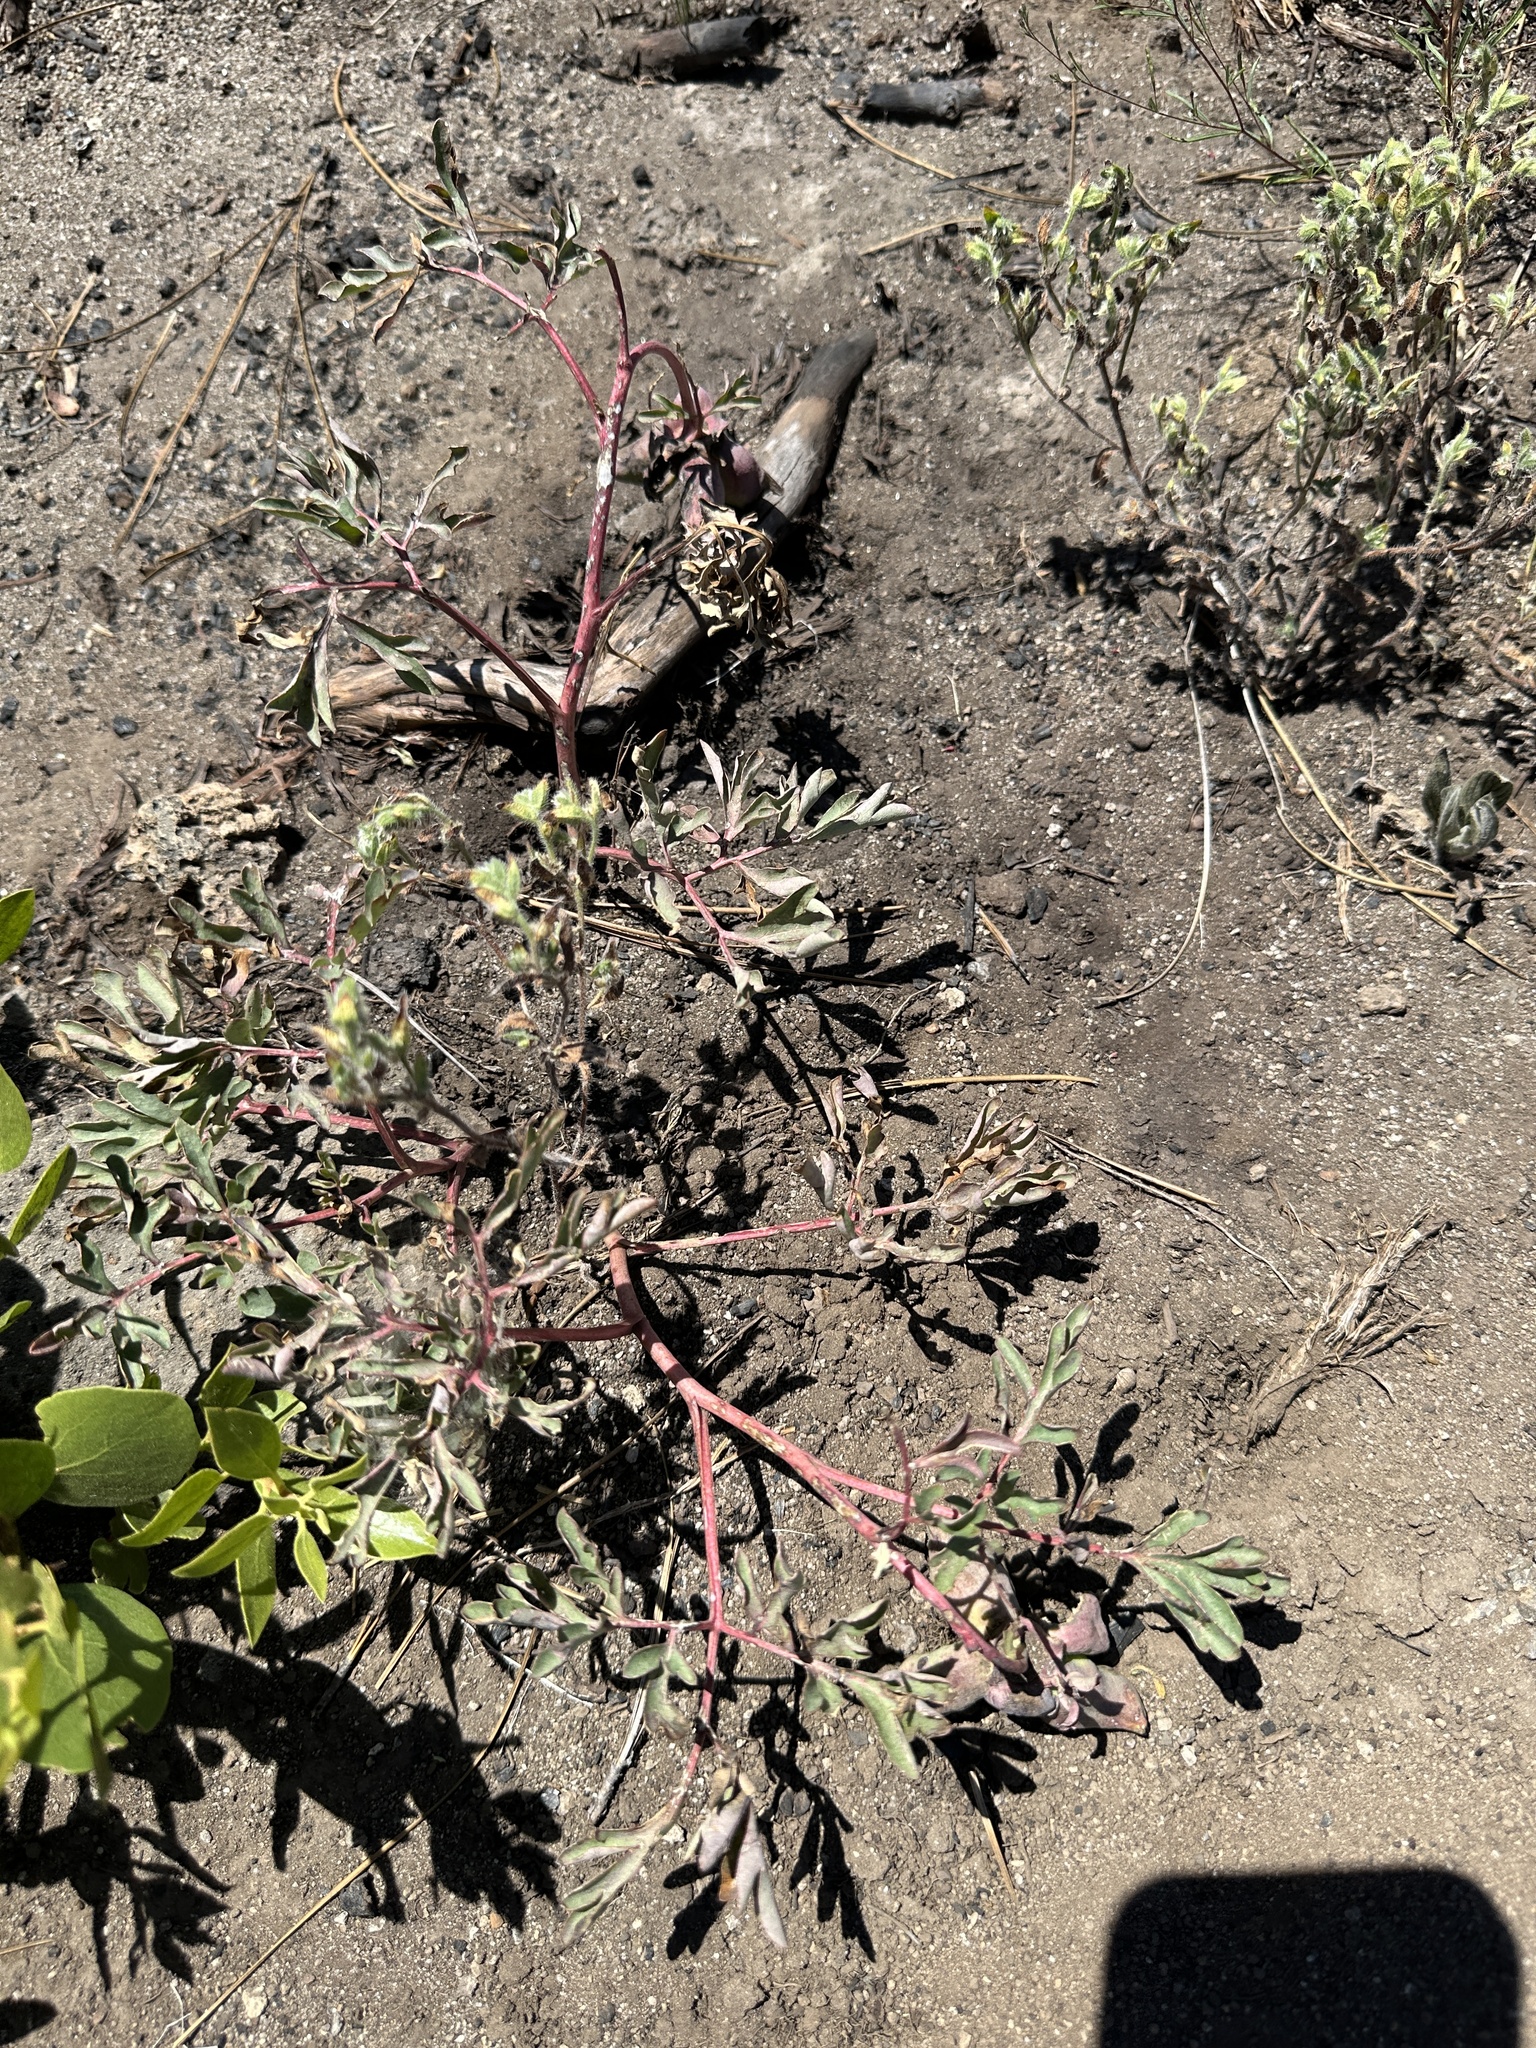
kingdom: Plantae
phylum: Tracheophyta
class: Magnoliopsida
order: Saxifragales
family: Paeoniaceae
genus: Paeonia
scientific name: Paeonia brownii
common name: Brown's peony
